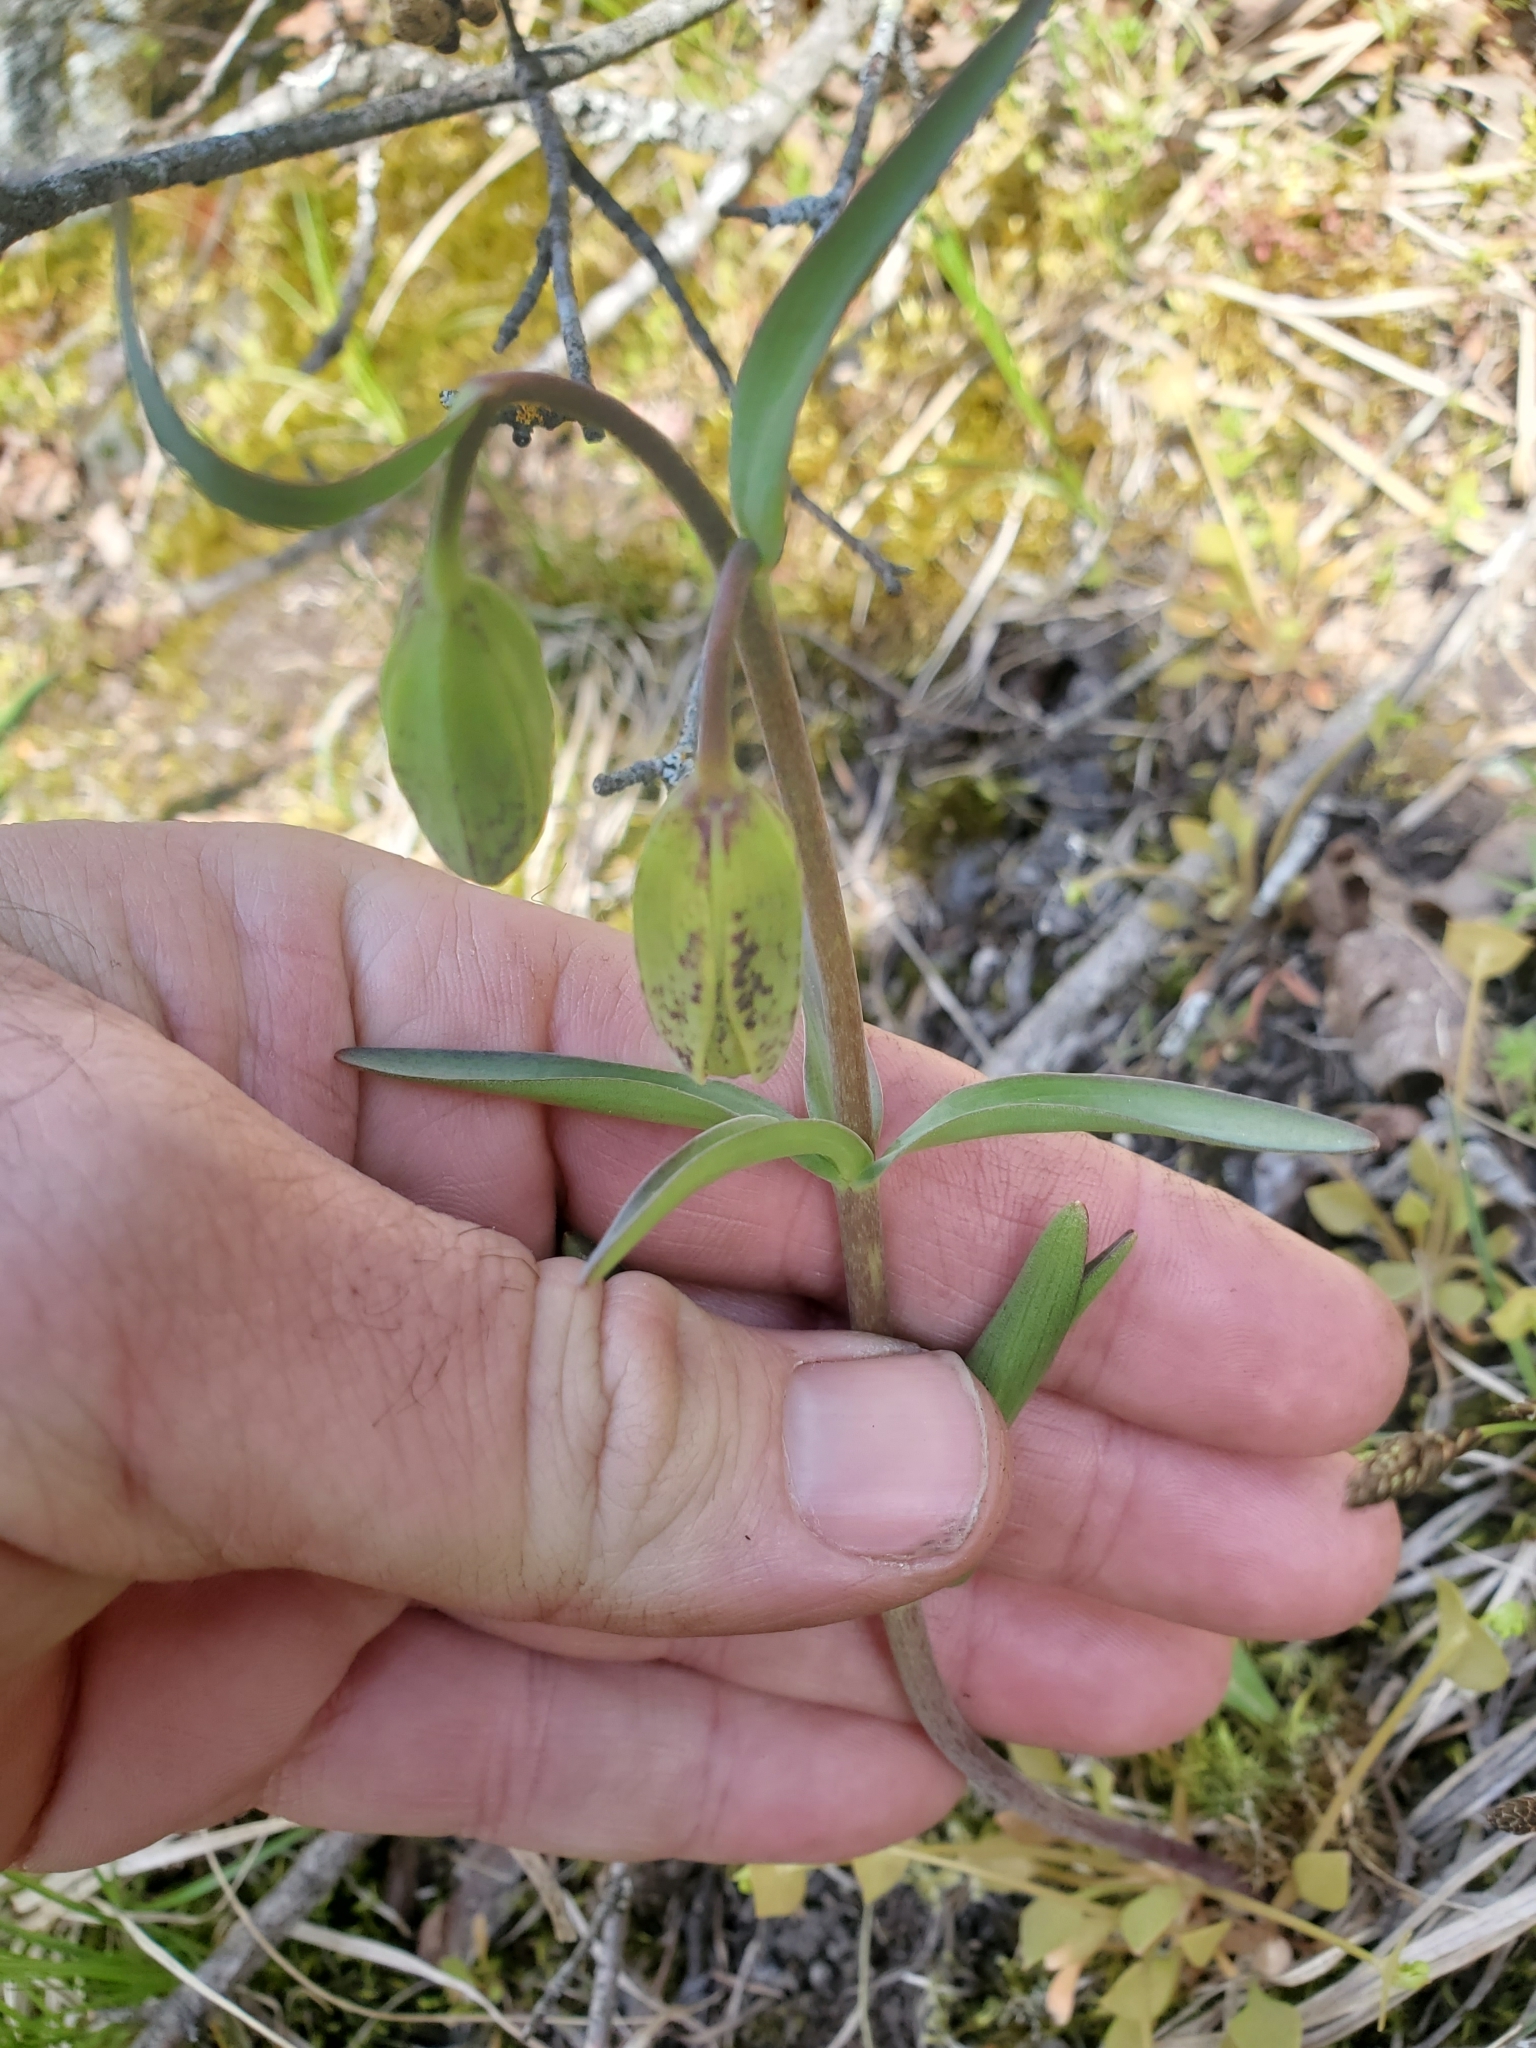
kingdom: Plantae
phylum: Tracheophyta
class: Liliopsida
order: Liliales
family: Liliaceae
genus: Fritillaria
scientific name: Fritillaria affinis
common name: Ojai fritillary
